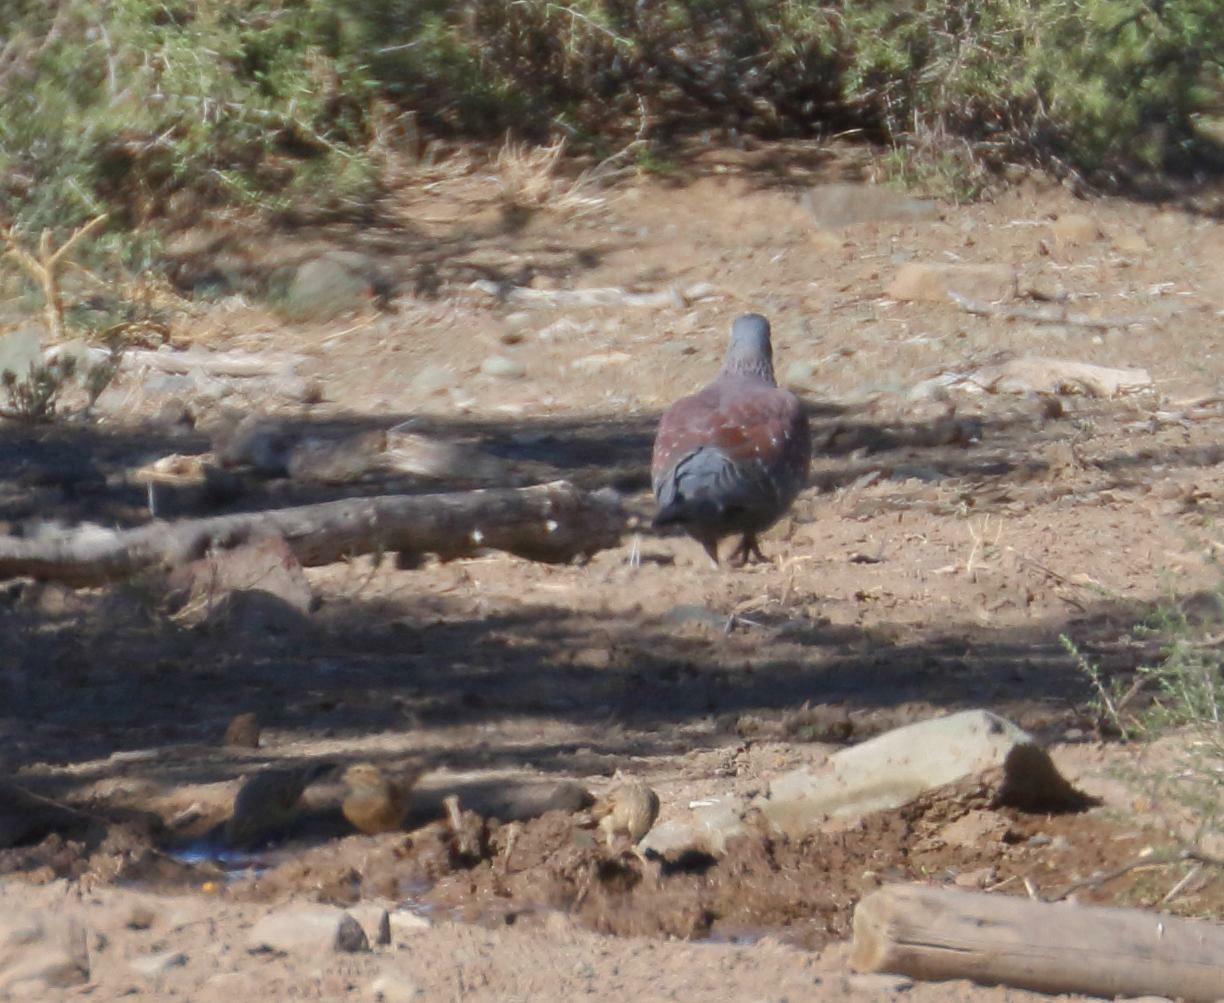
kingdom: Animalia
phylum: Chordata
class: Aves
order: Columbiformes
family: Columbidae
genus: Columba
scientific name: Columba guinea
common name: Speckled pigeon
